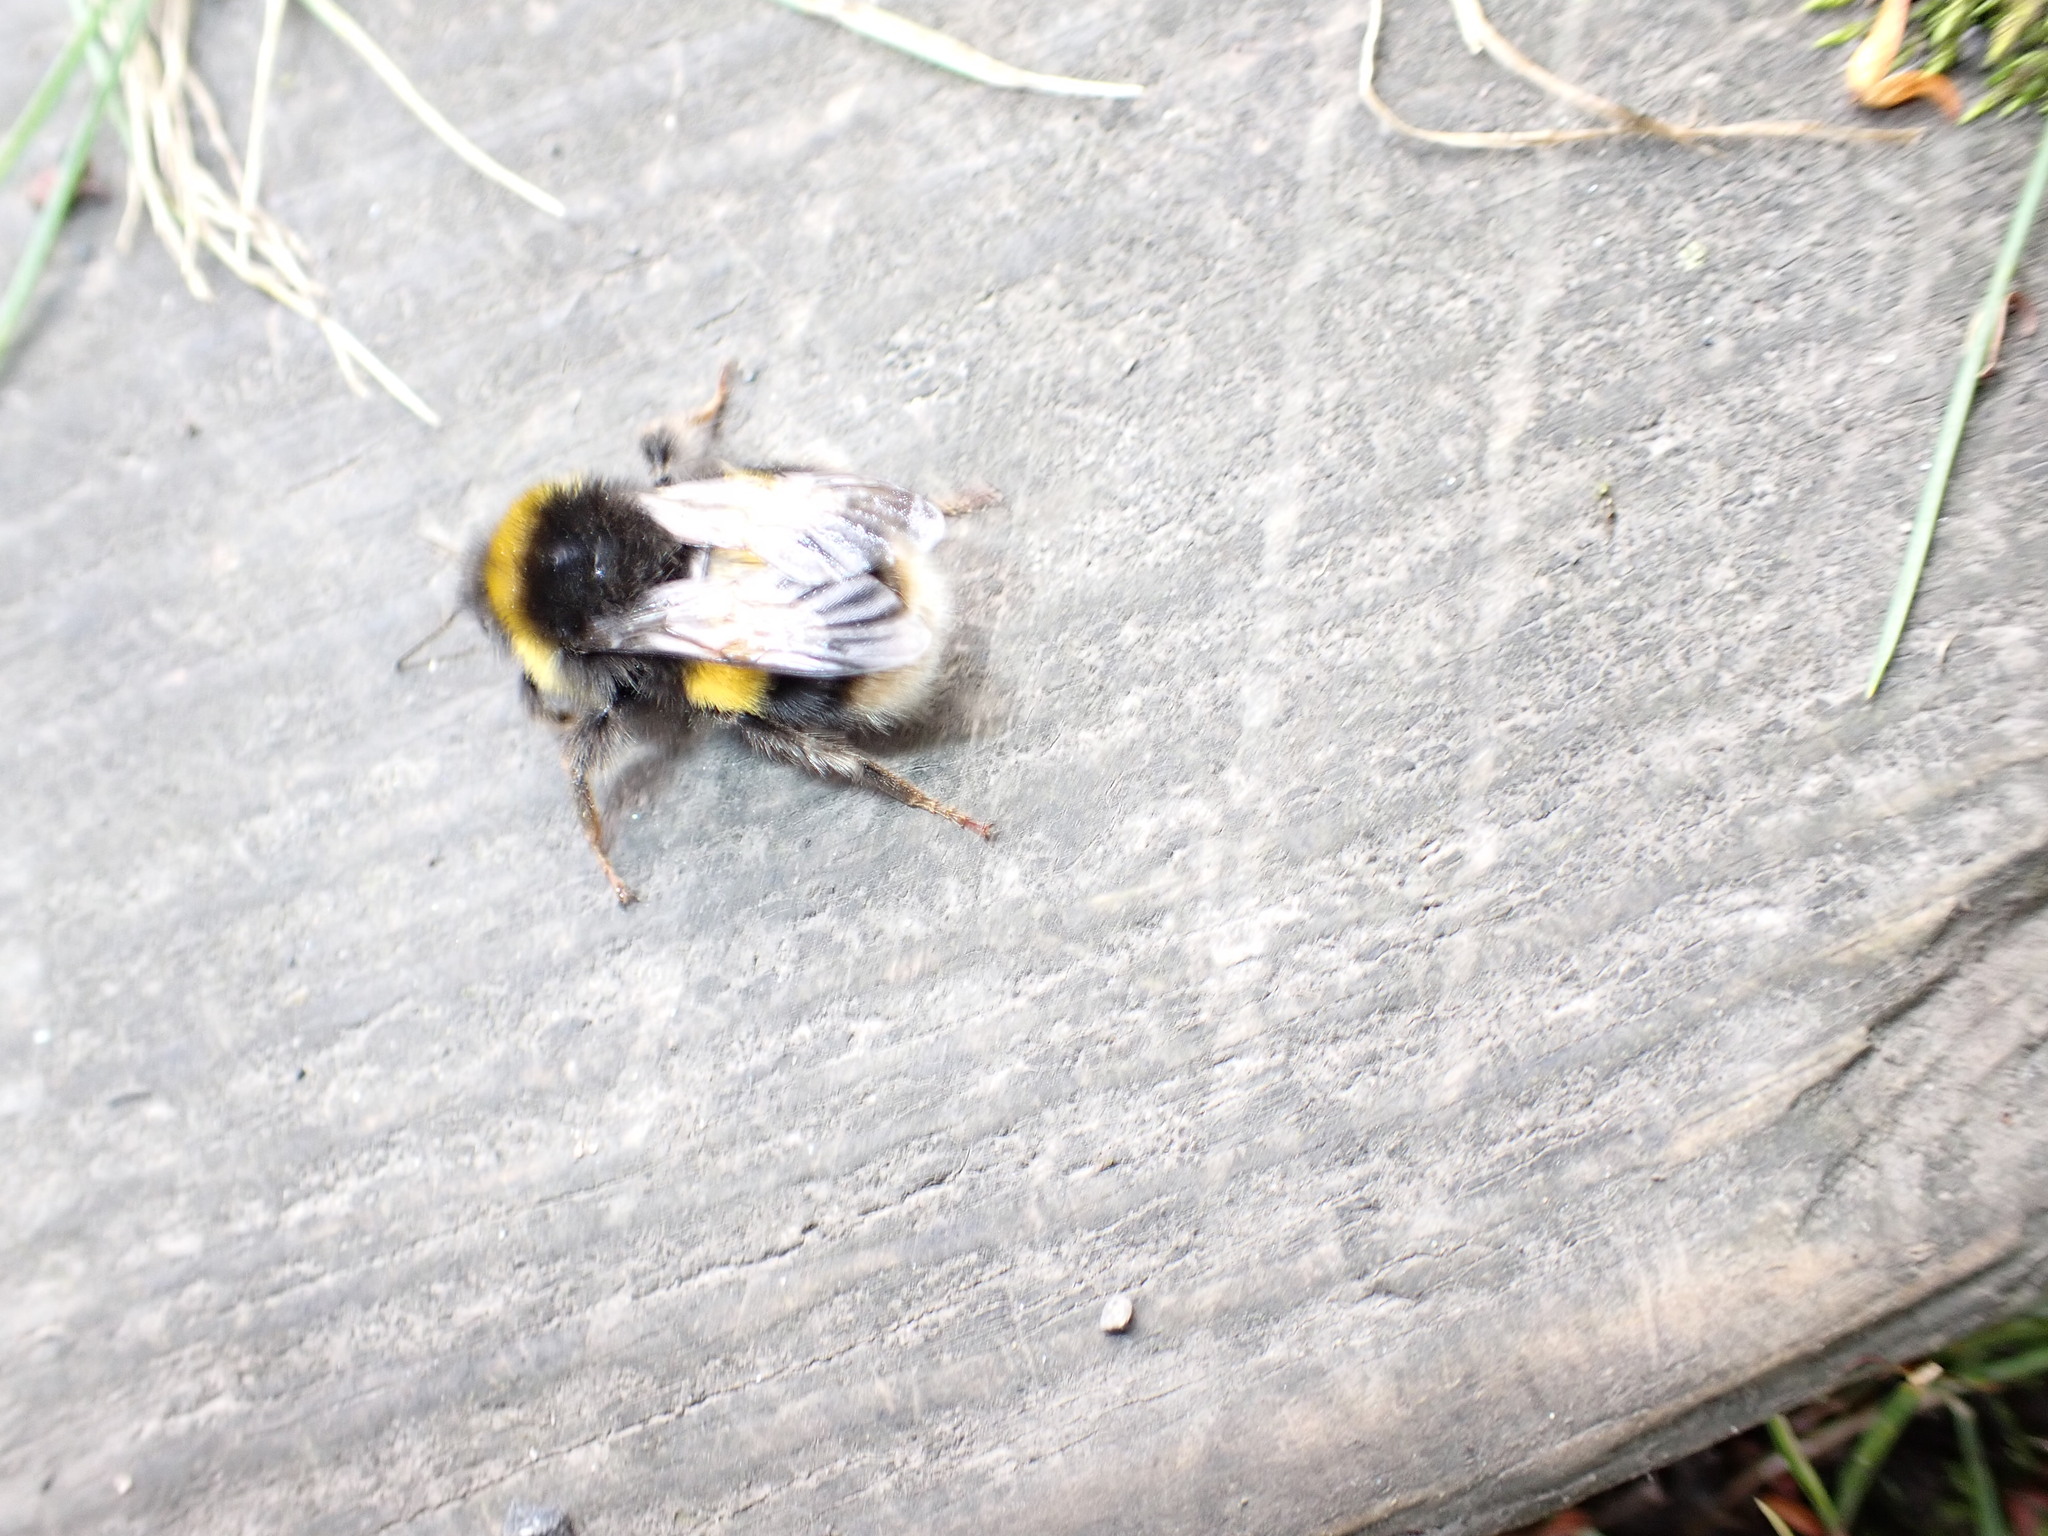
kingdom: Animalia
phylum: Arthropoda
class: Insecta
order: Hymenoptera
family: Apidae
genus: Bombus
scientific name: Bombus terrestris
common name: Buff-tailed bumblebee
